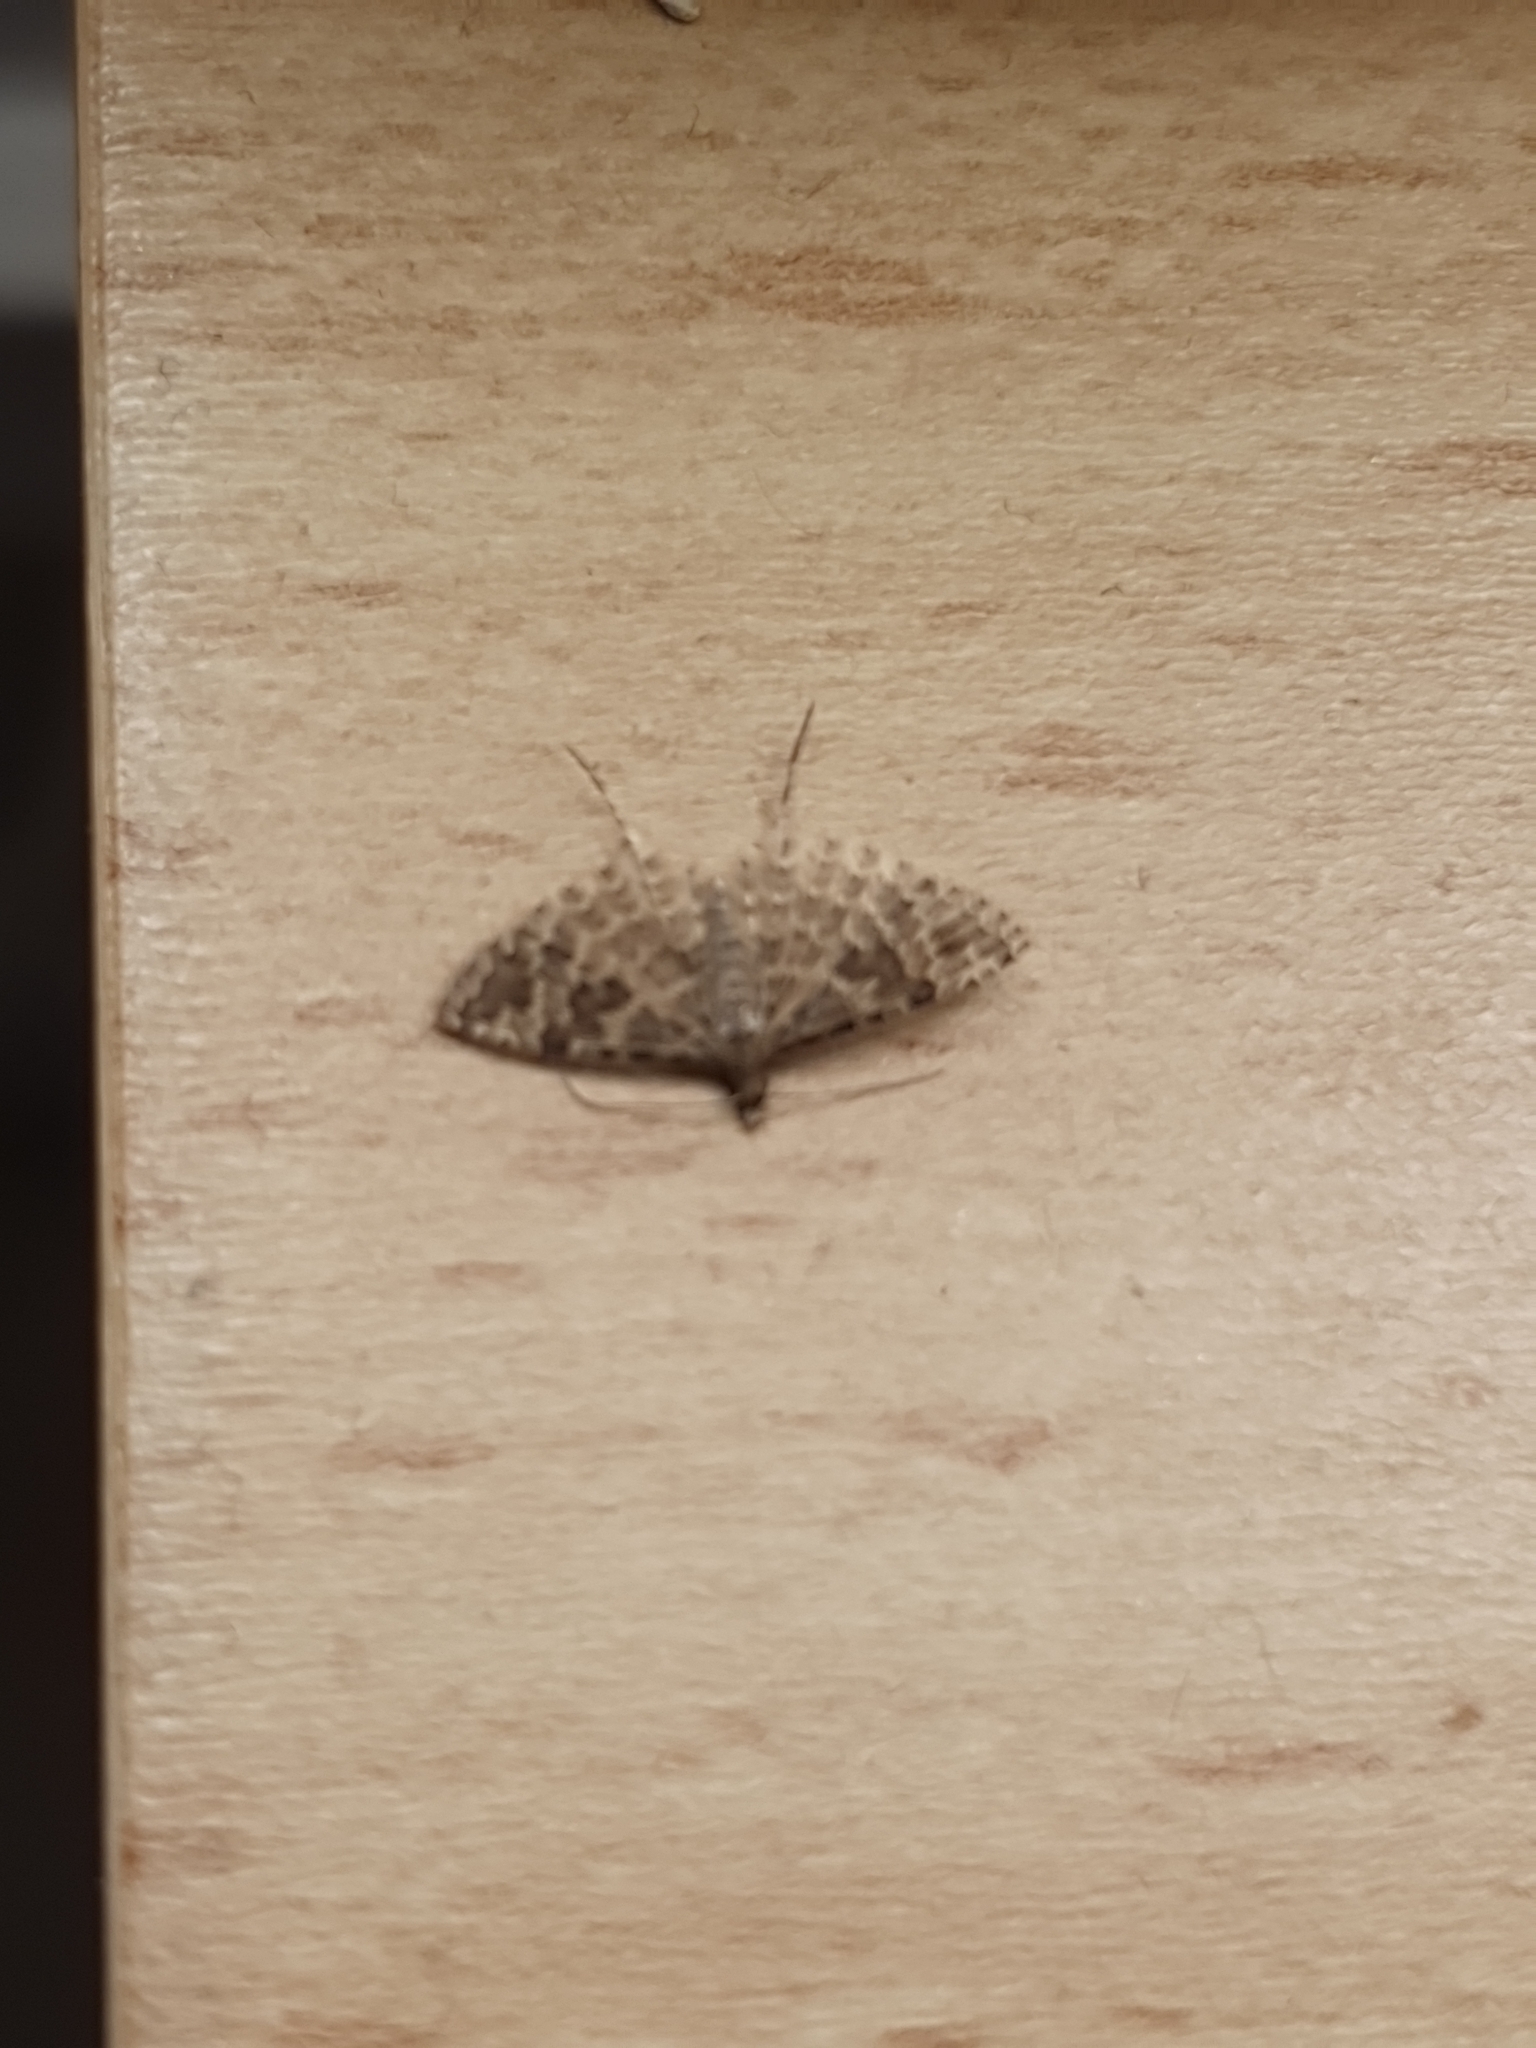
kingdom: Animalia
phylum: Arthropoda
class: Insecta
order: Lepidoptera
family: Alucitidae
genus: Alucita
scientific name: Alucita hexadactyla
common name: Twenty-plume moth
